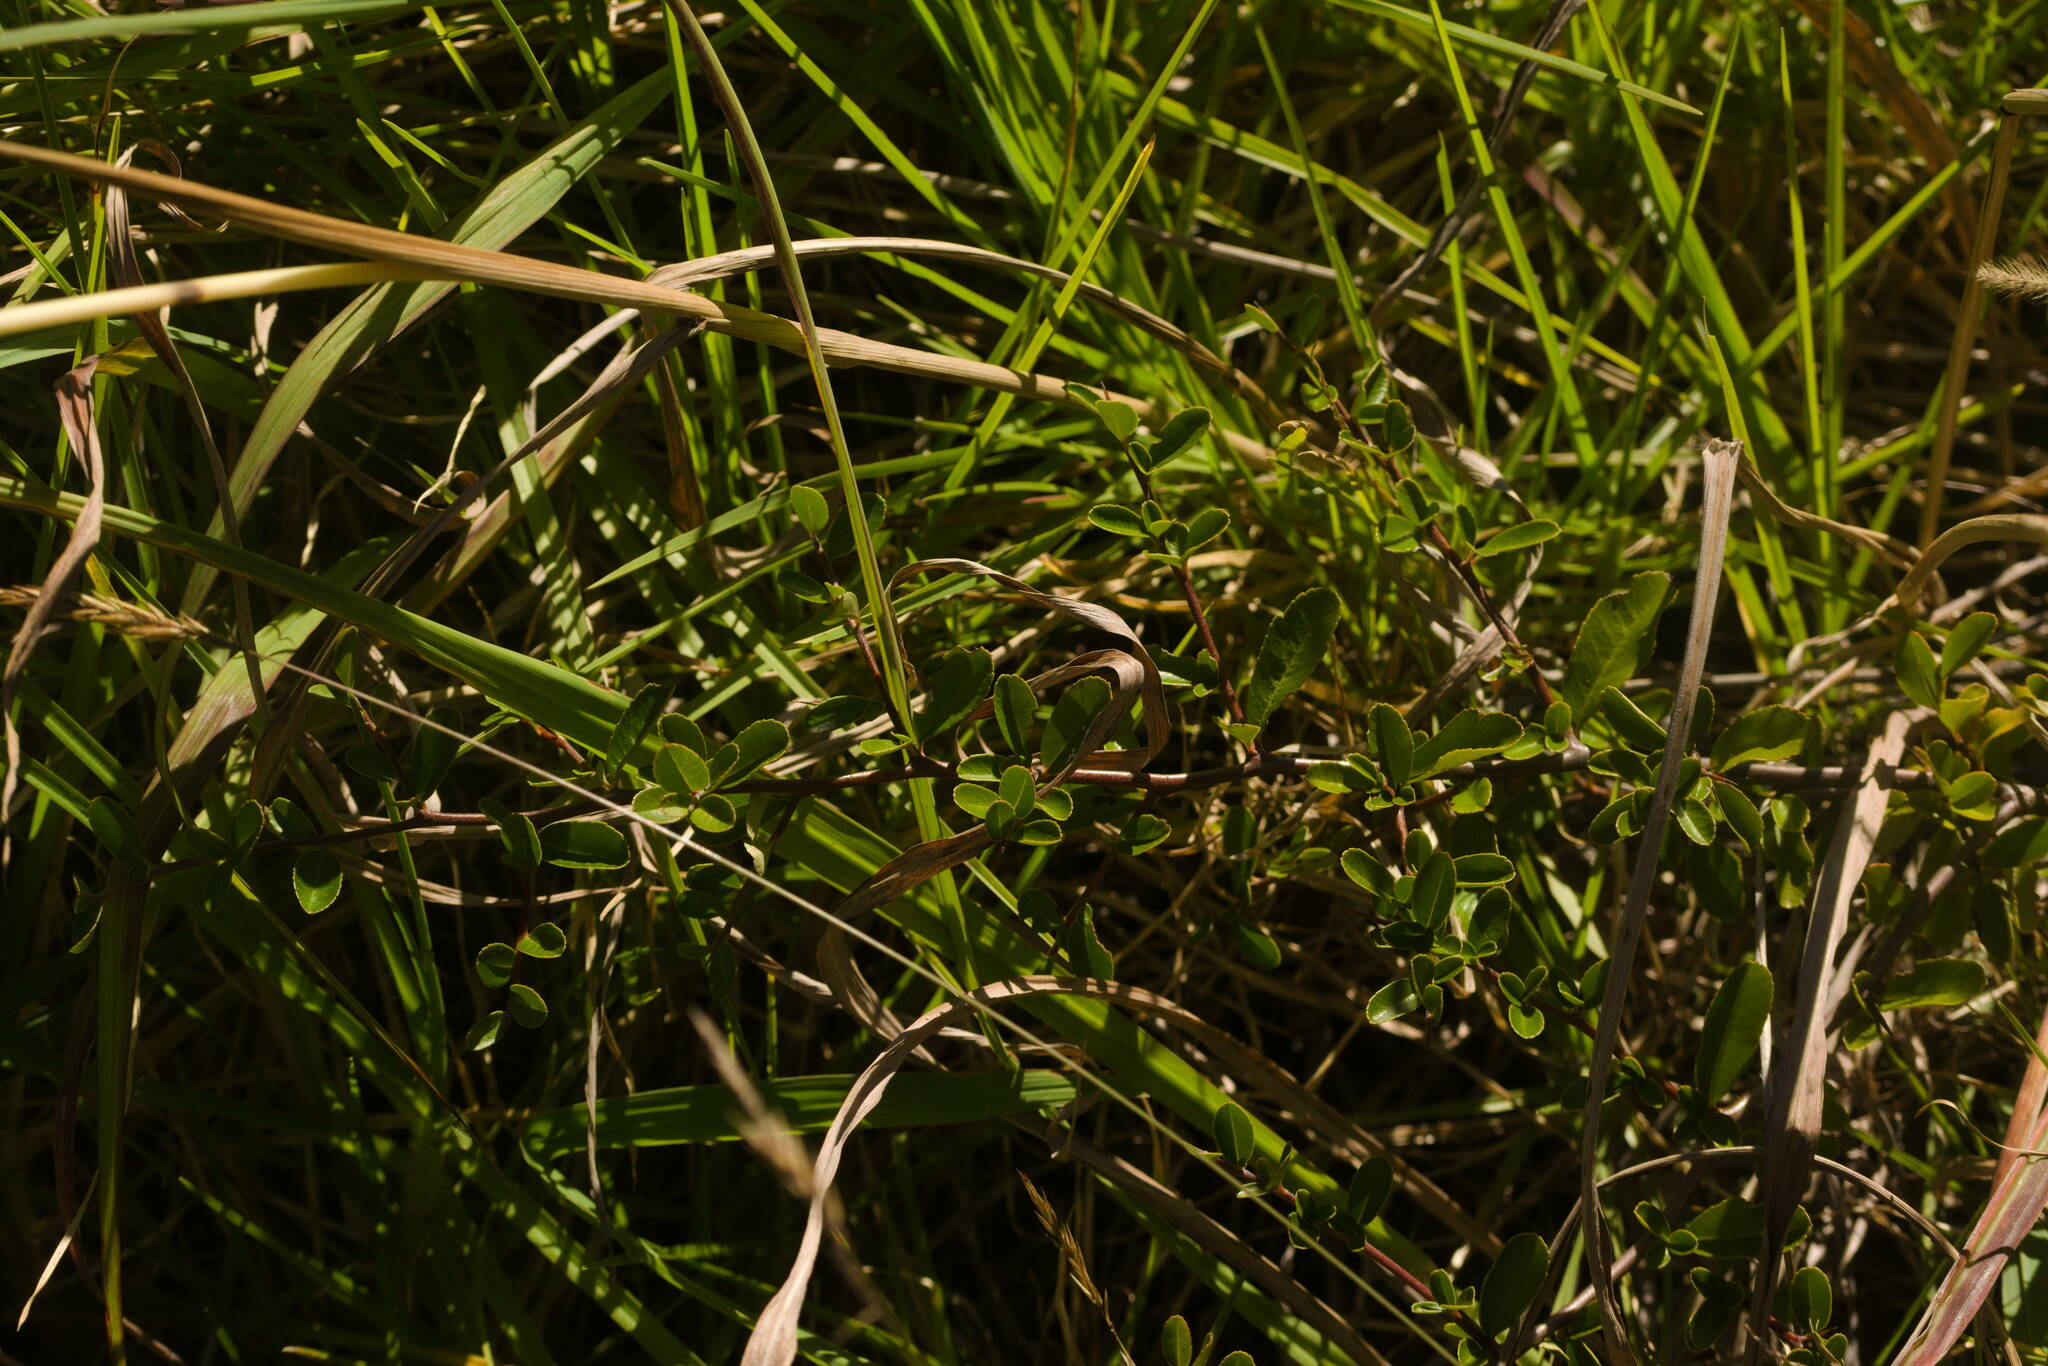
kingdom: Plantae
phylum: Tracheophyta
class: Magnoliopsida
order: Rosales
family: Rosaceae
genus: Pyracantha
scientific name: Pyracantha fortuneana
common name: Chinese firethorn
